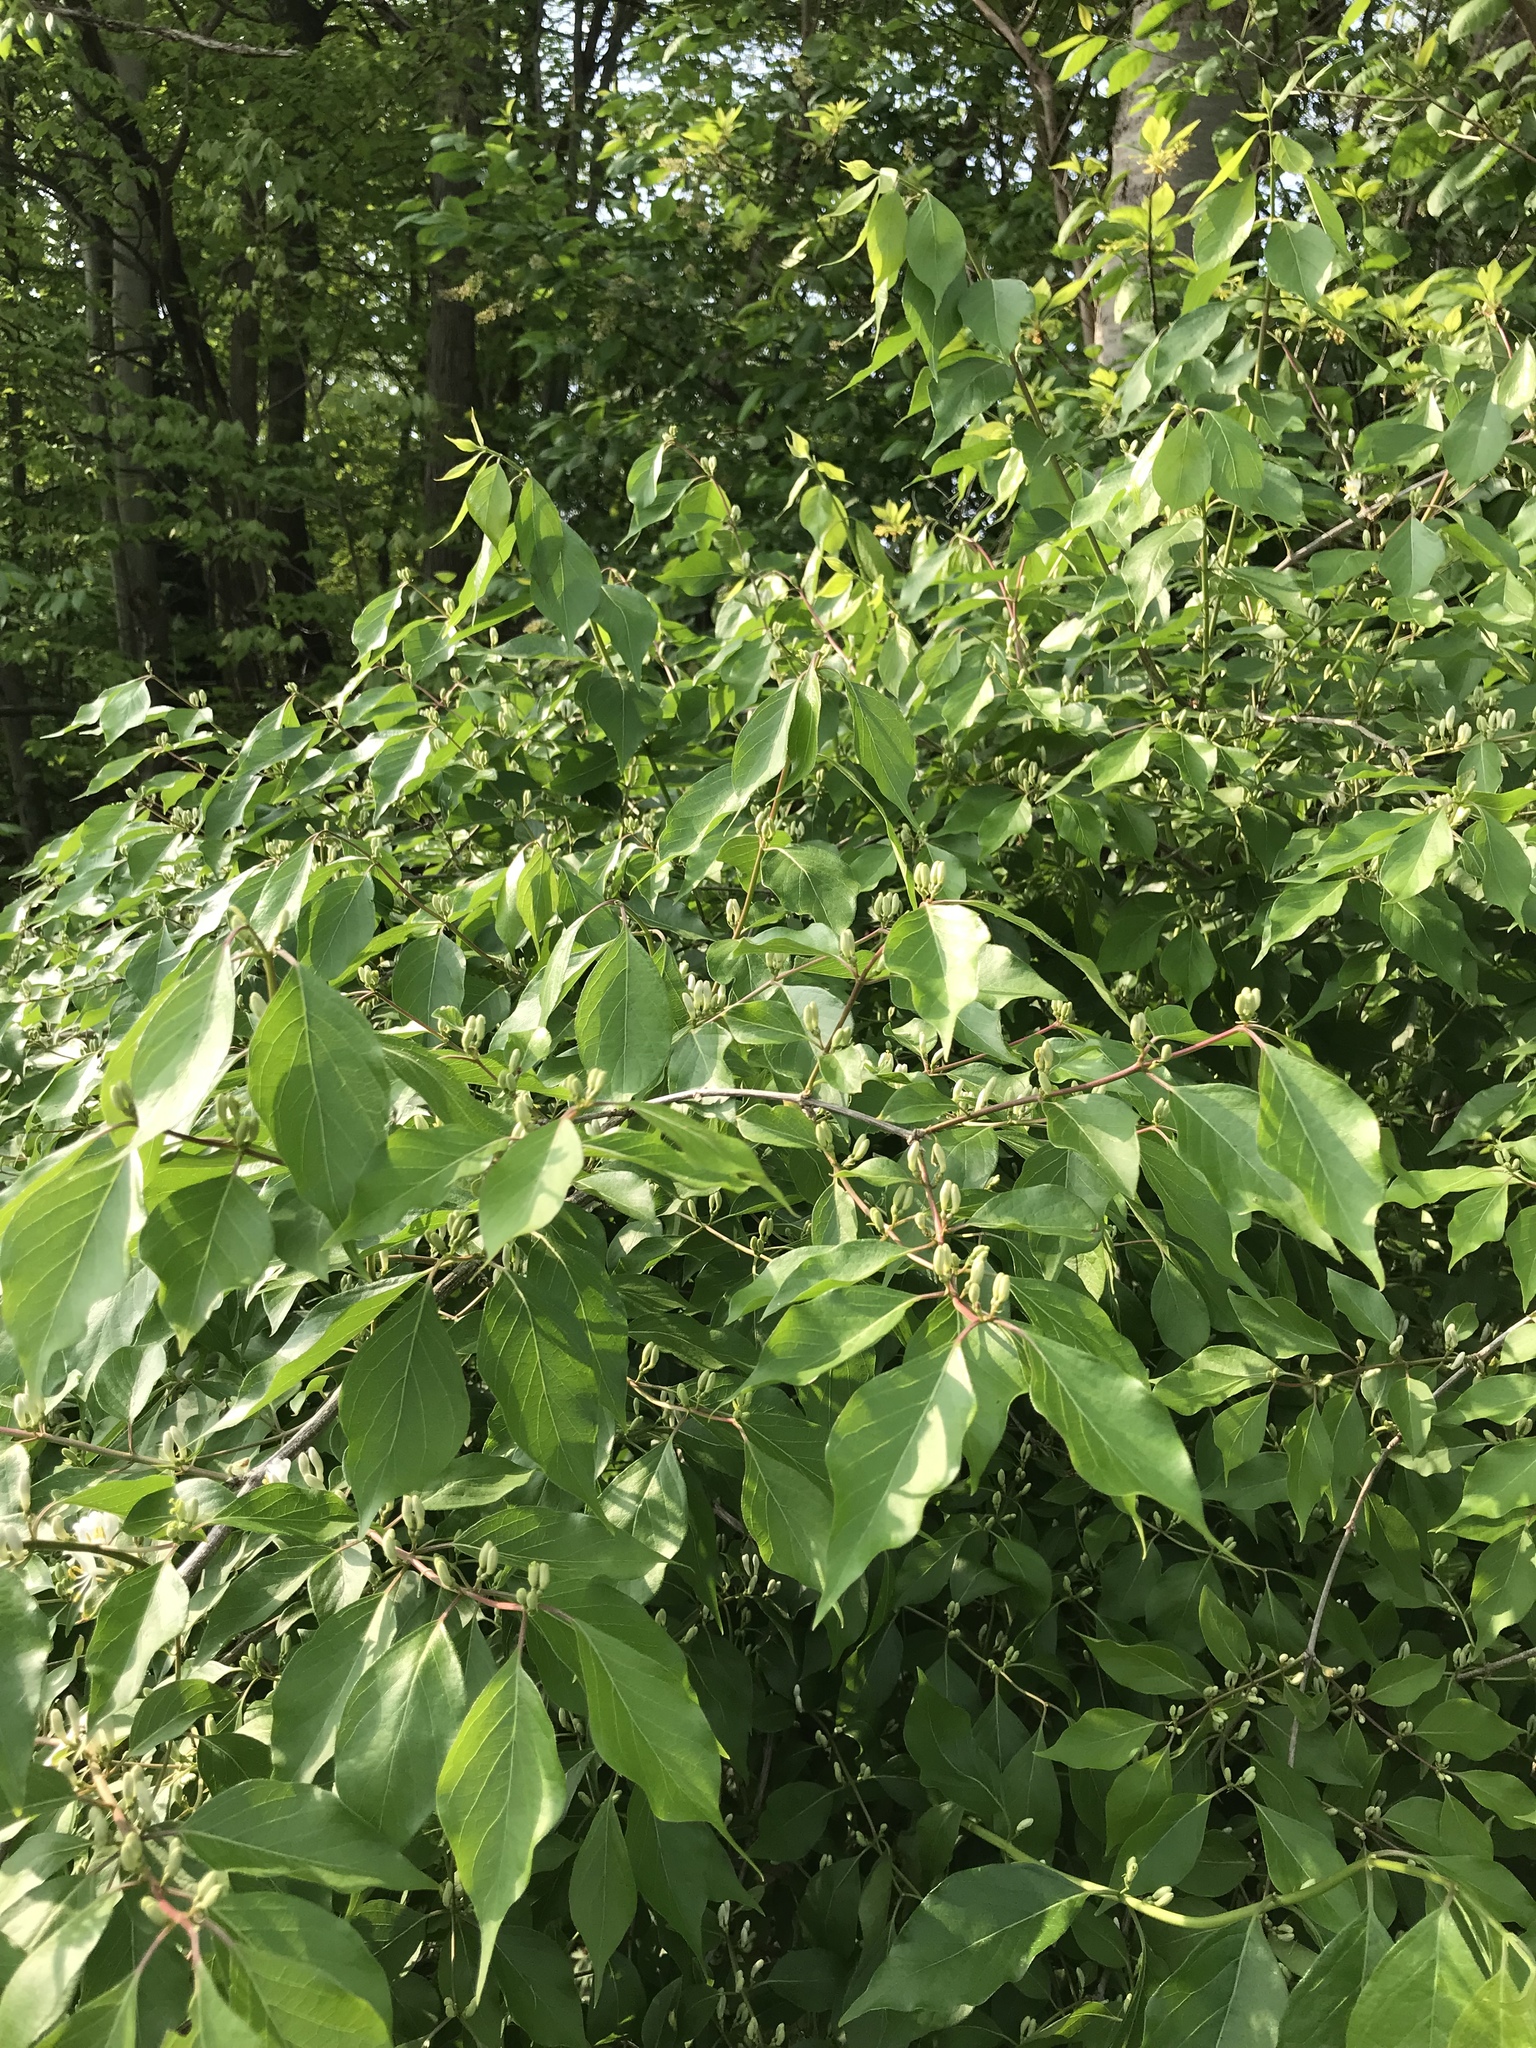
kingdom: Plantae
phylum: Tracheophyta
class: Magnoliopsida
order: Dipsacales
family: Caprifoliaceae
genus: Lonicera
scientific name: Lonicera maackii
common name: Amur honeysuckle
